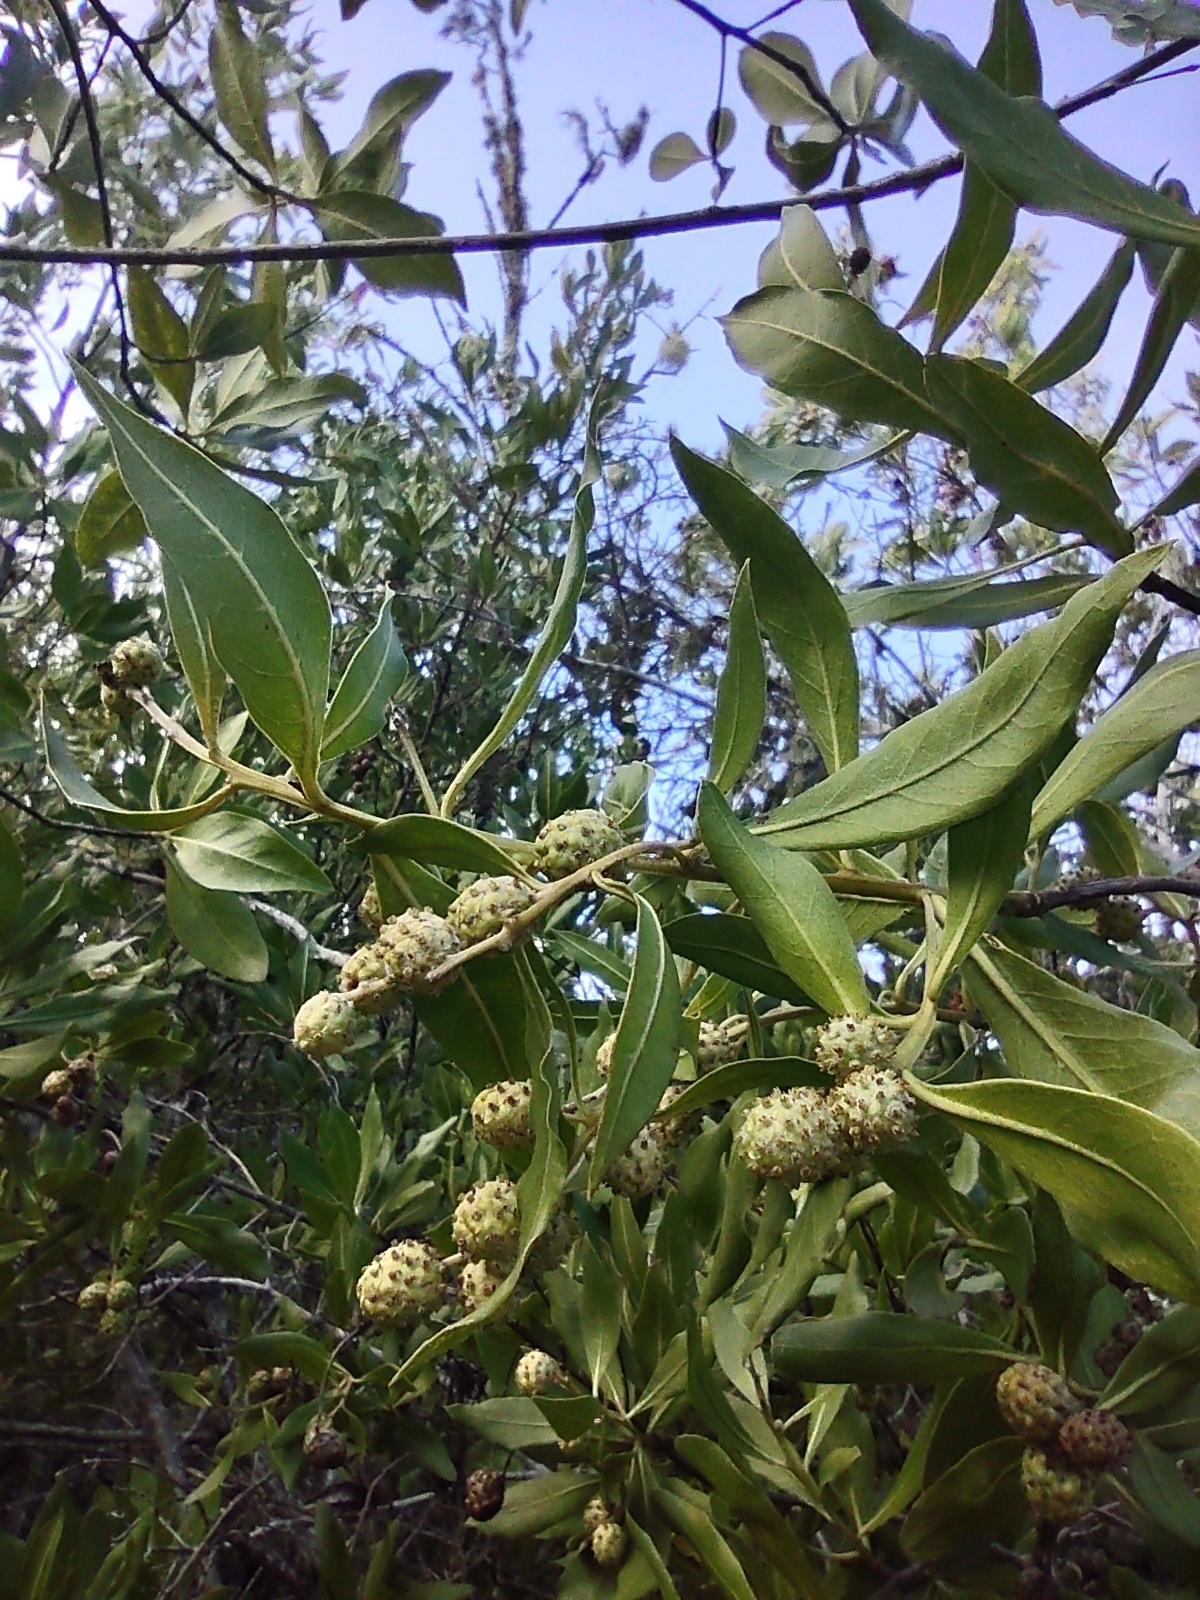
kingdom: Plantae
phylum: Tracheophyta
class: Magnoliopsida
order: Myrtales
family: Combretaceae
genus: Conocarpus
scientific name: Conocarpus erectus
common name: Button mangrove
